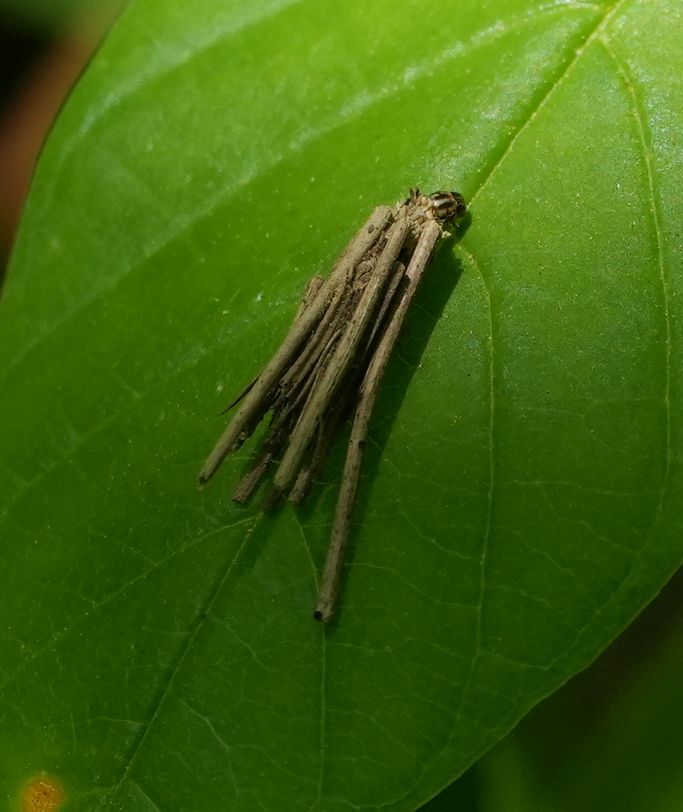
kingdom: Animalia
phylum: Arthropoda
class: Insecta
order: Lepidoptera
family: Psychidae
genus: Psyche
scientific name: Psyche casta
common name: Common sweep
